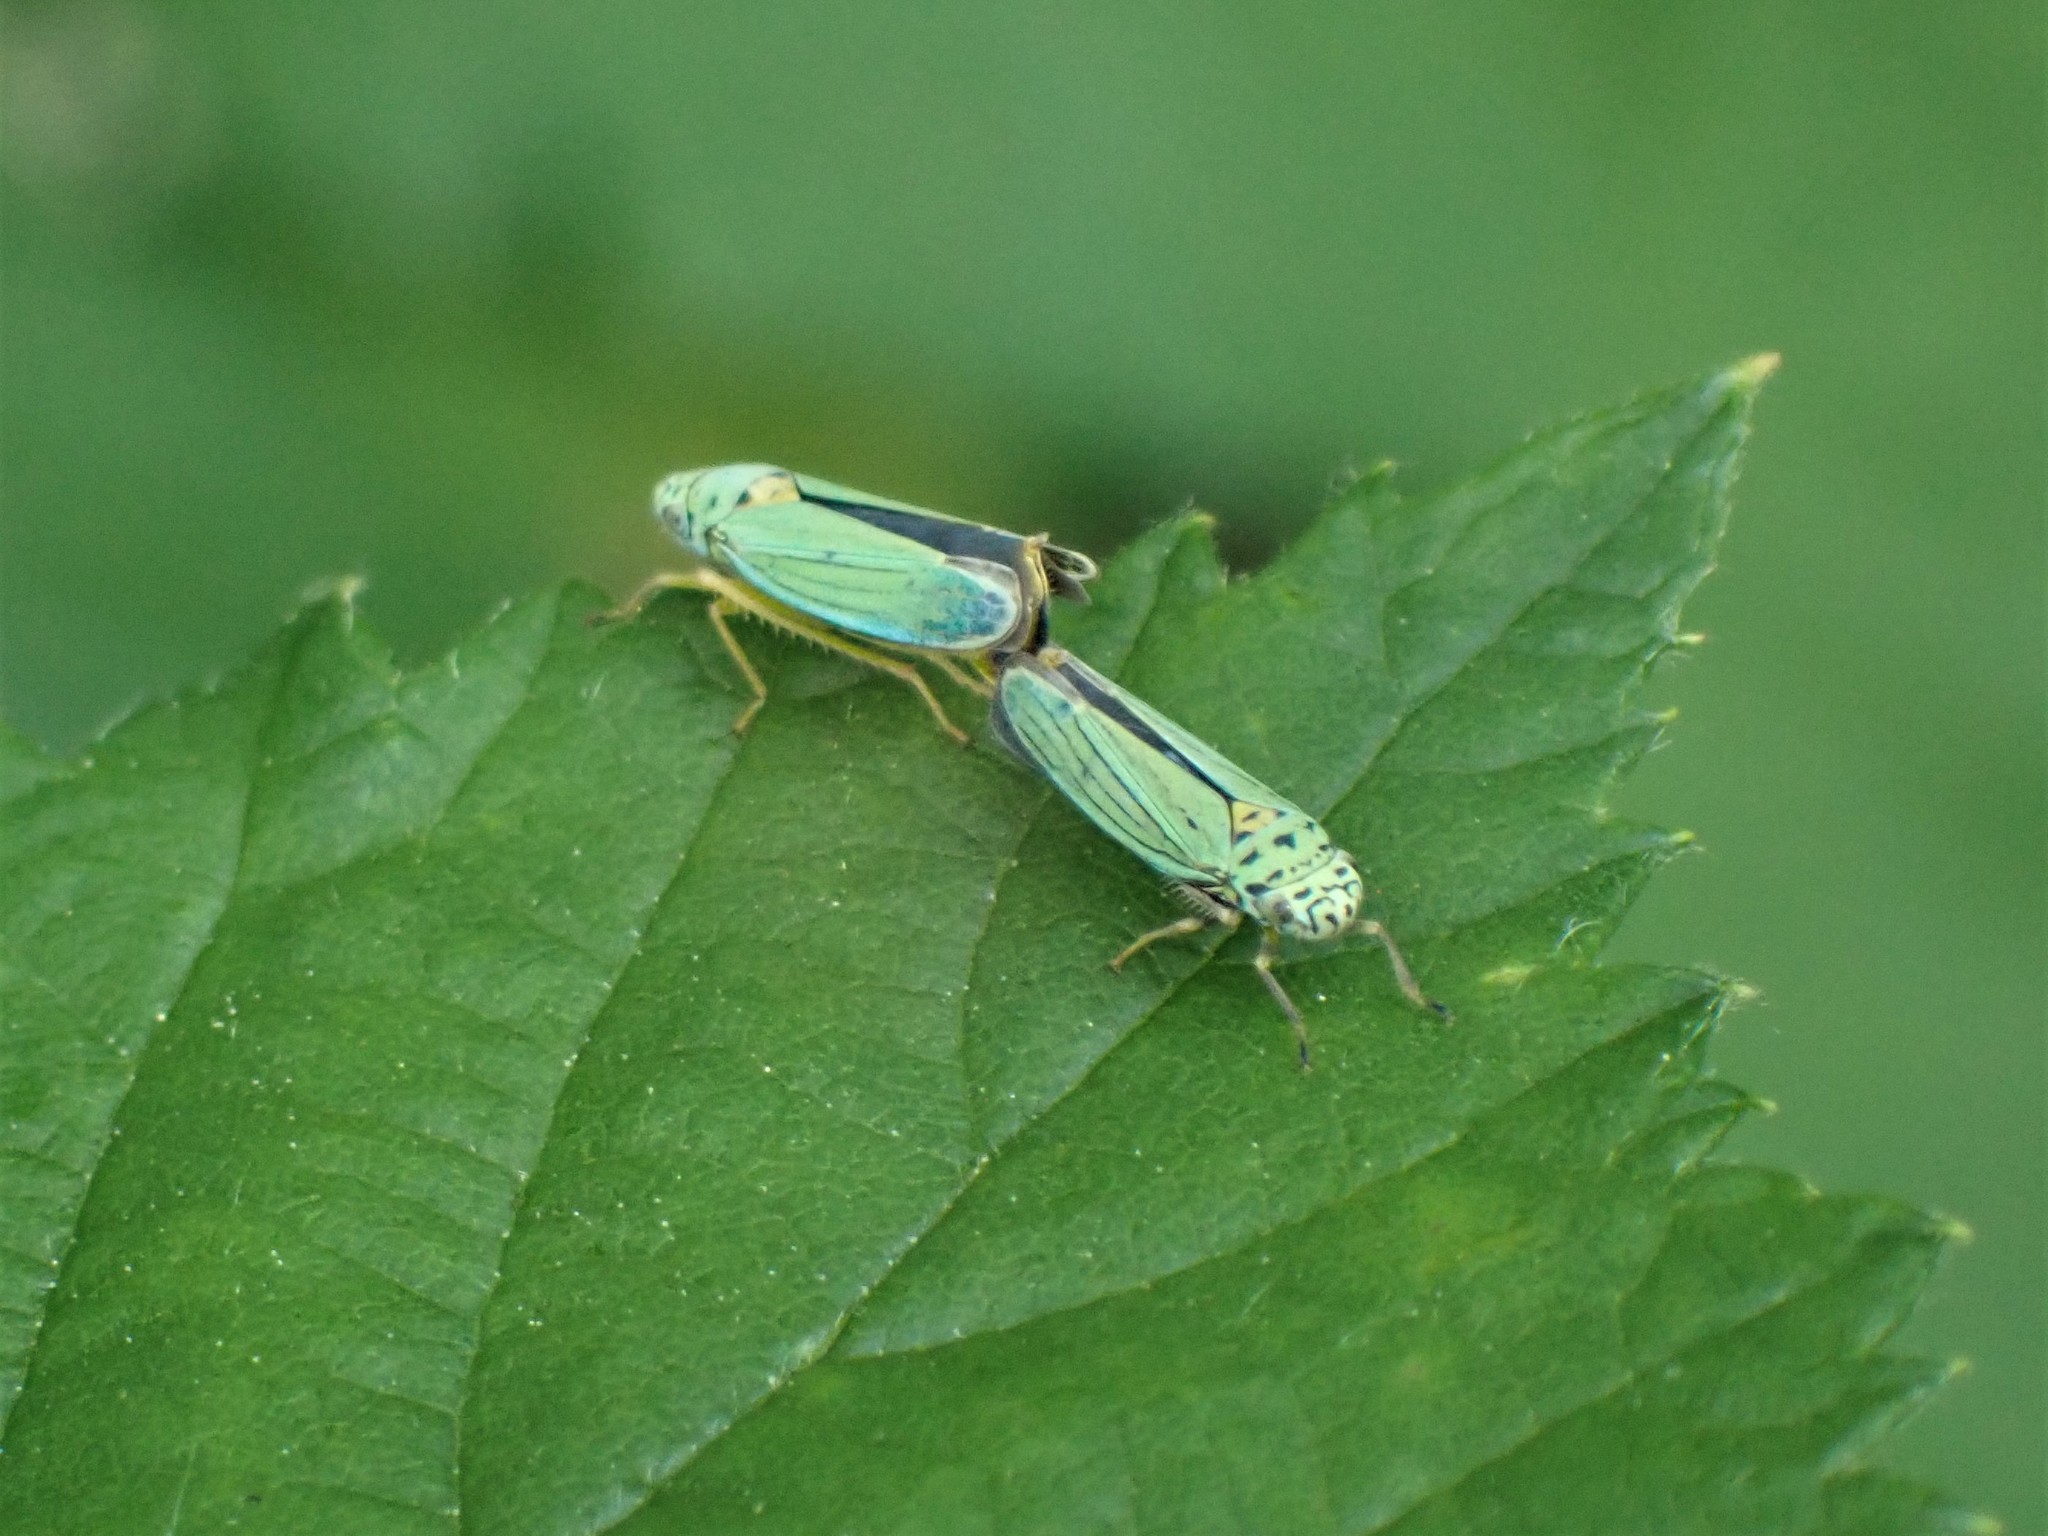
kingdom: Animalia
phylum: Arthropoda
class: Insecta
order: Hemiptera
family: Cicadellidae
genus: Graphocephala
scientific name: Graphocephala atropunctata
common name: Blue-green sharpshooter
